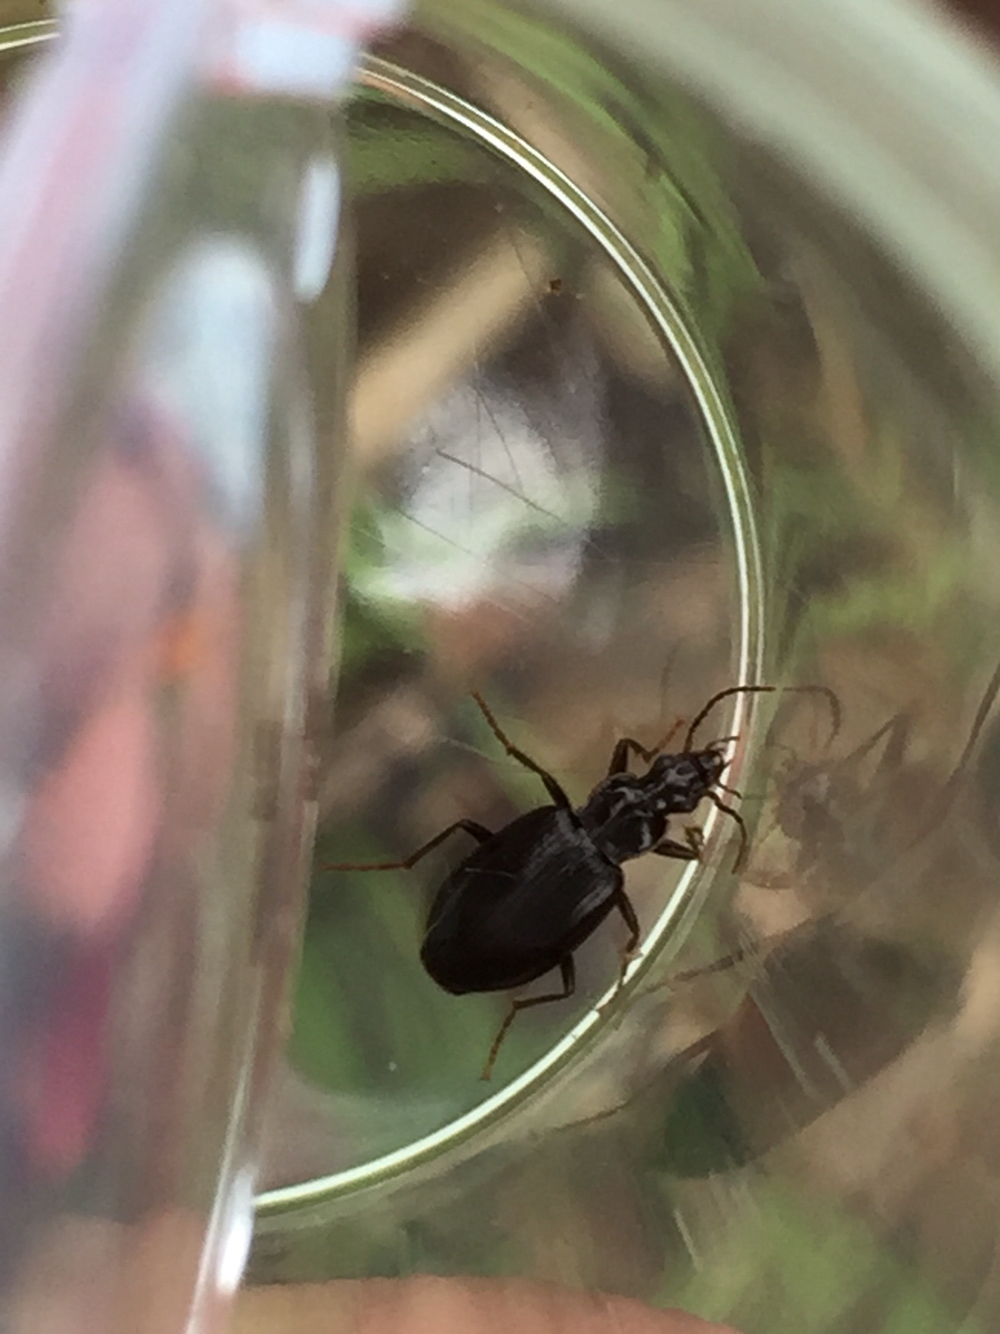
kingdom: Animalia
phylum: Arthropoda
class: Insecta
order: Coleoptera
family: Carabidae
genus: Platynus
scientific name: Platynus brunneomarginatus
